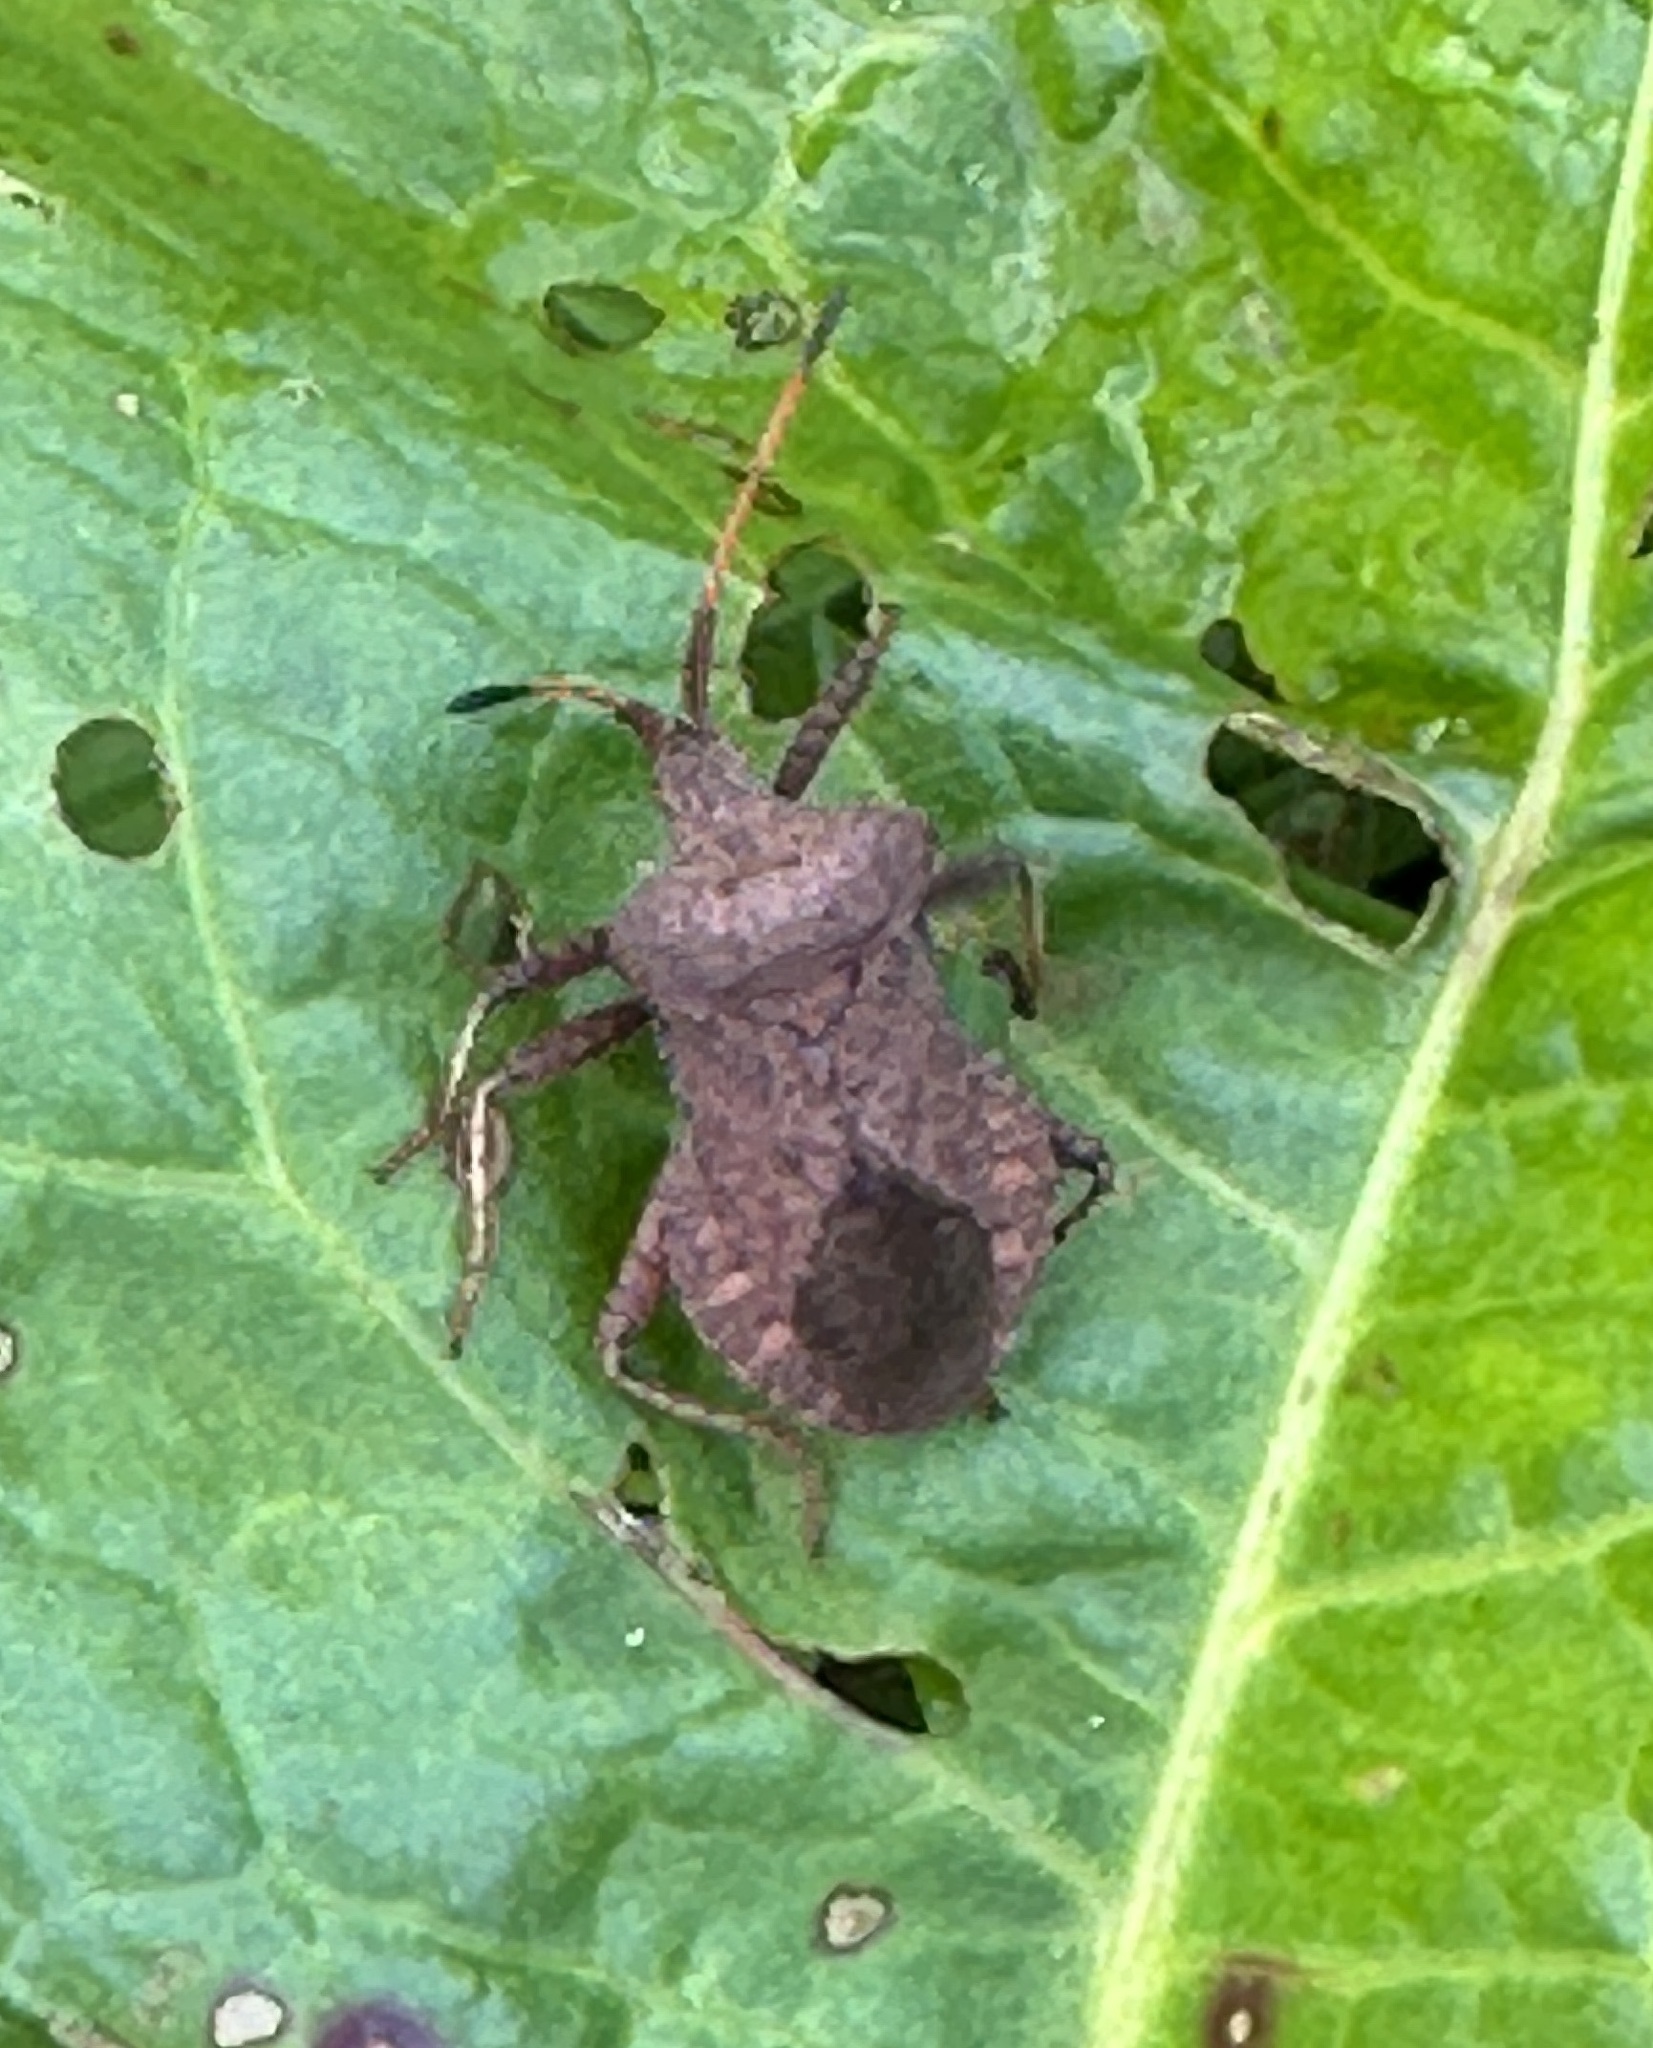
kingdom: Animalia
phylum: Arthropoda
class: Insecta
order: Hemiptera
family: Coreidae
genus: Coreus
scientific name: Coreus marginatus
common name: Dock bug
